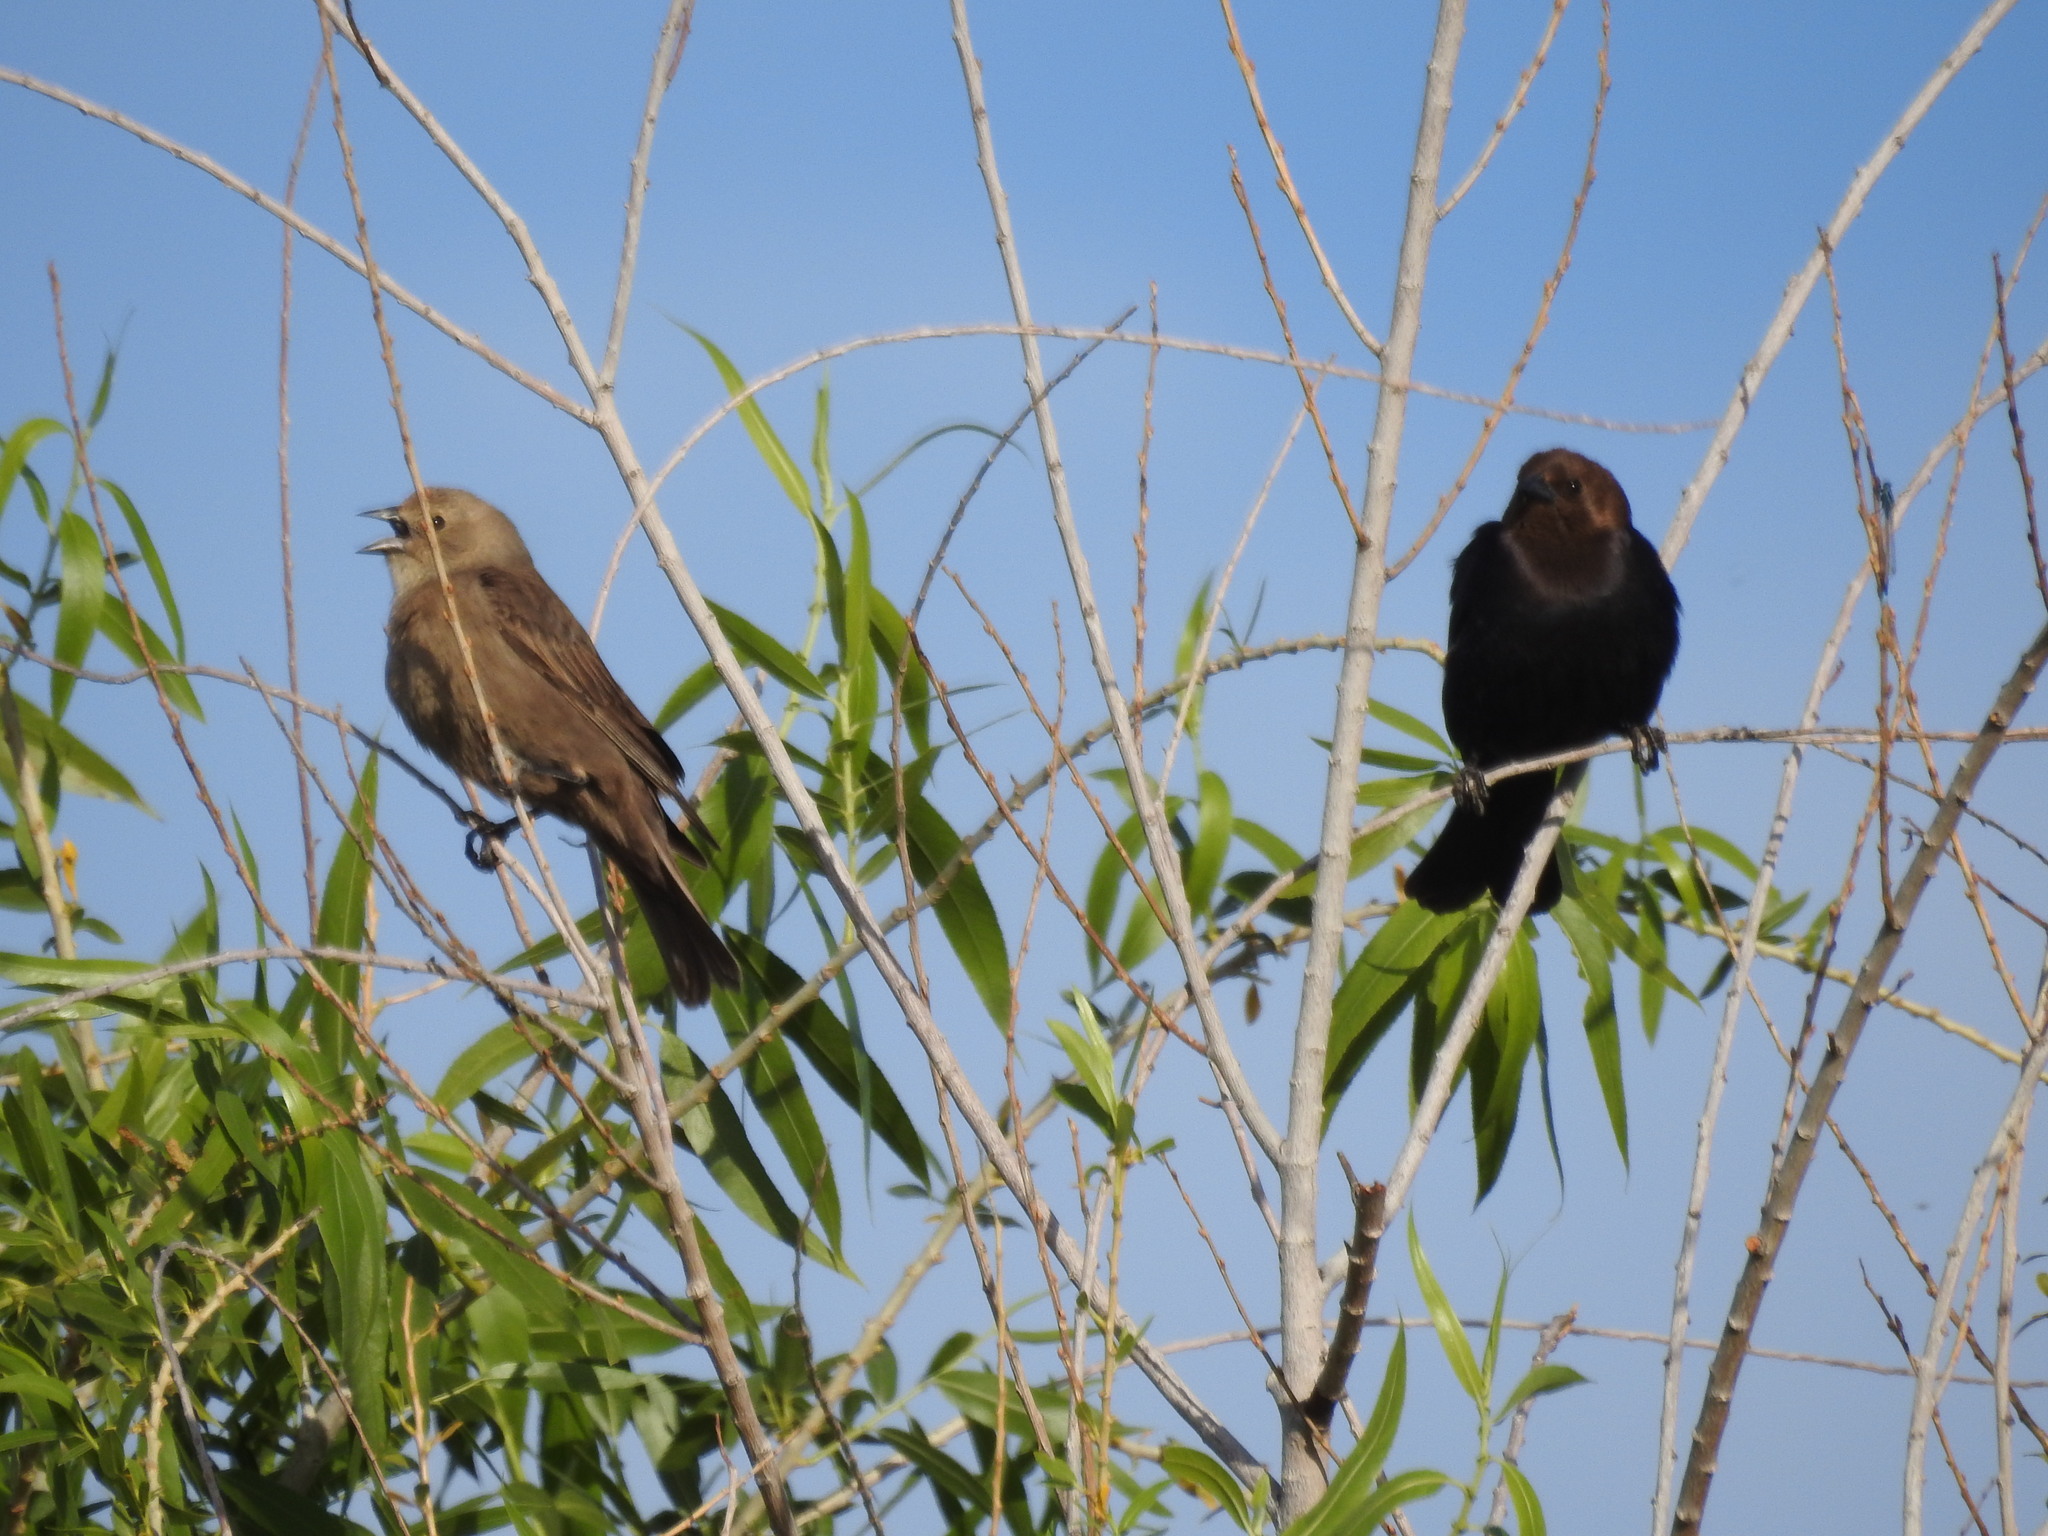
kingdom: Animalia
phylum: Chordata
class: Aves
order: Passeriformes
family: Icteridae
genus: Molothrus
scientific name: Molothrus ater
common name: Brown-headed cowbird
